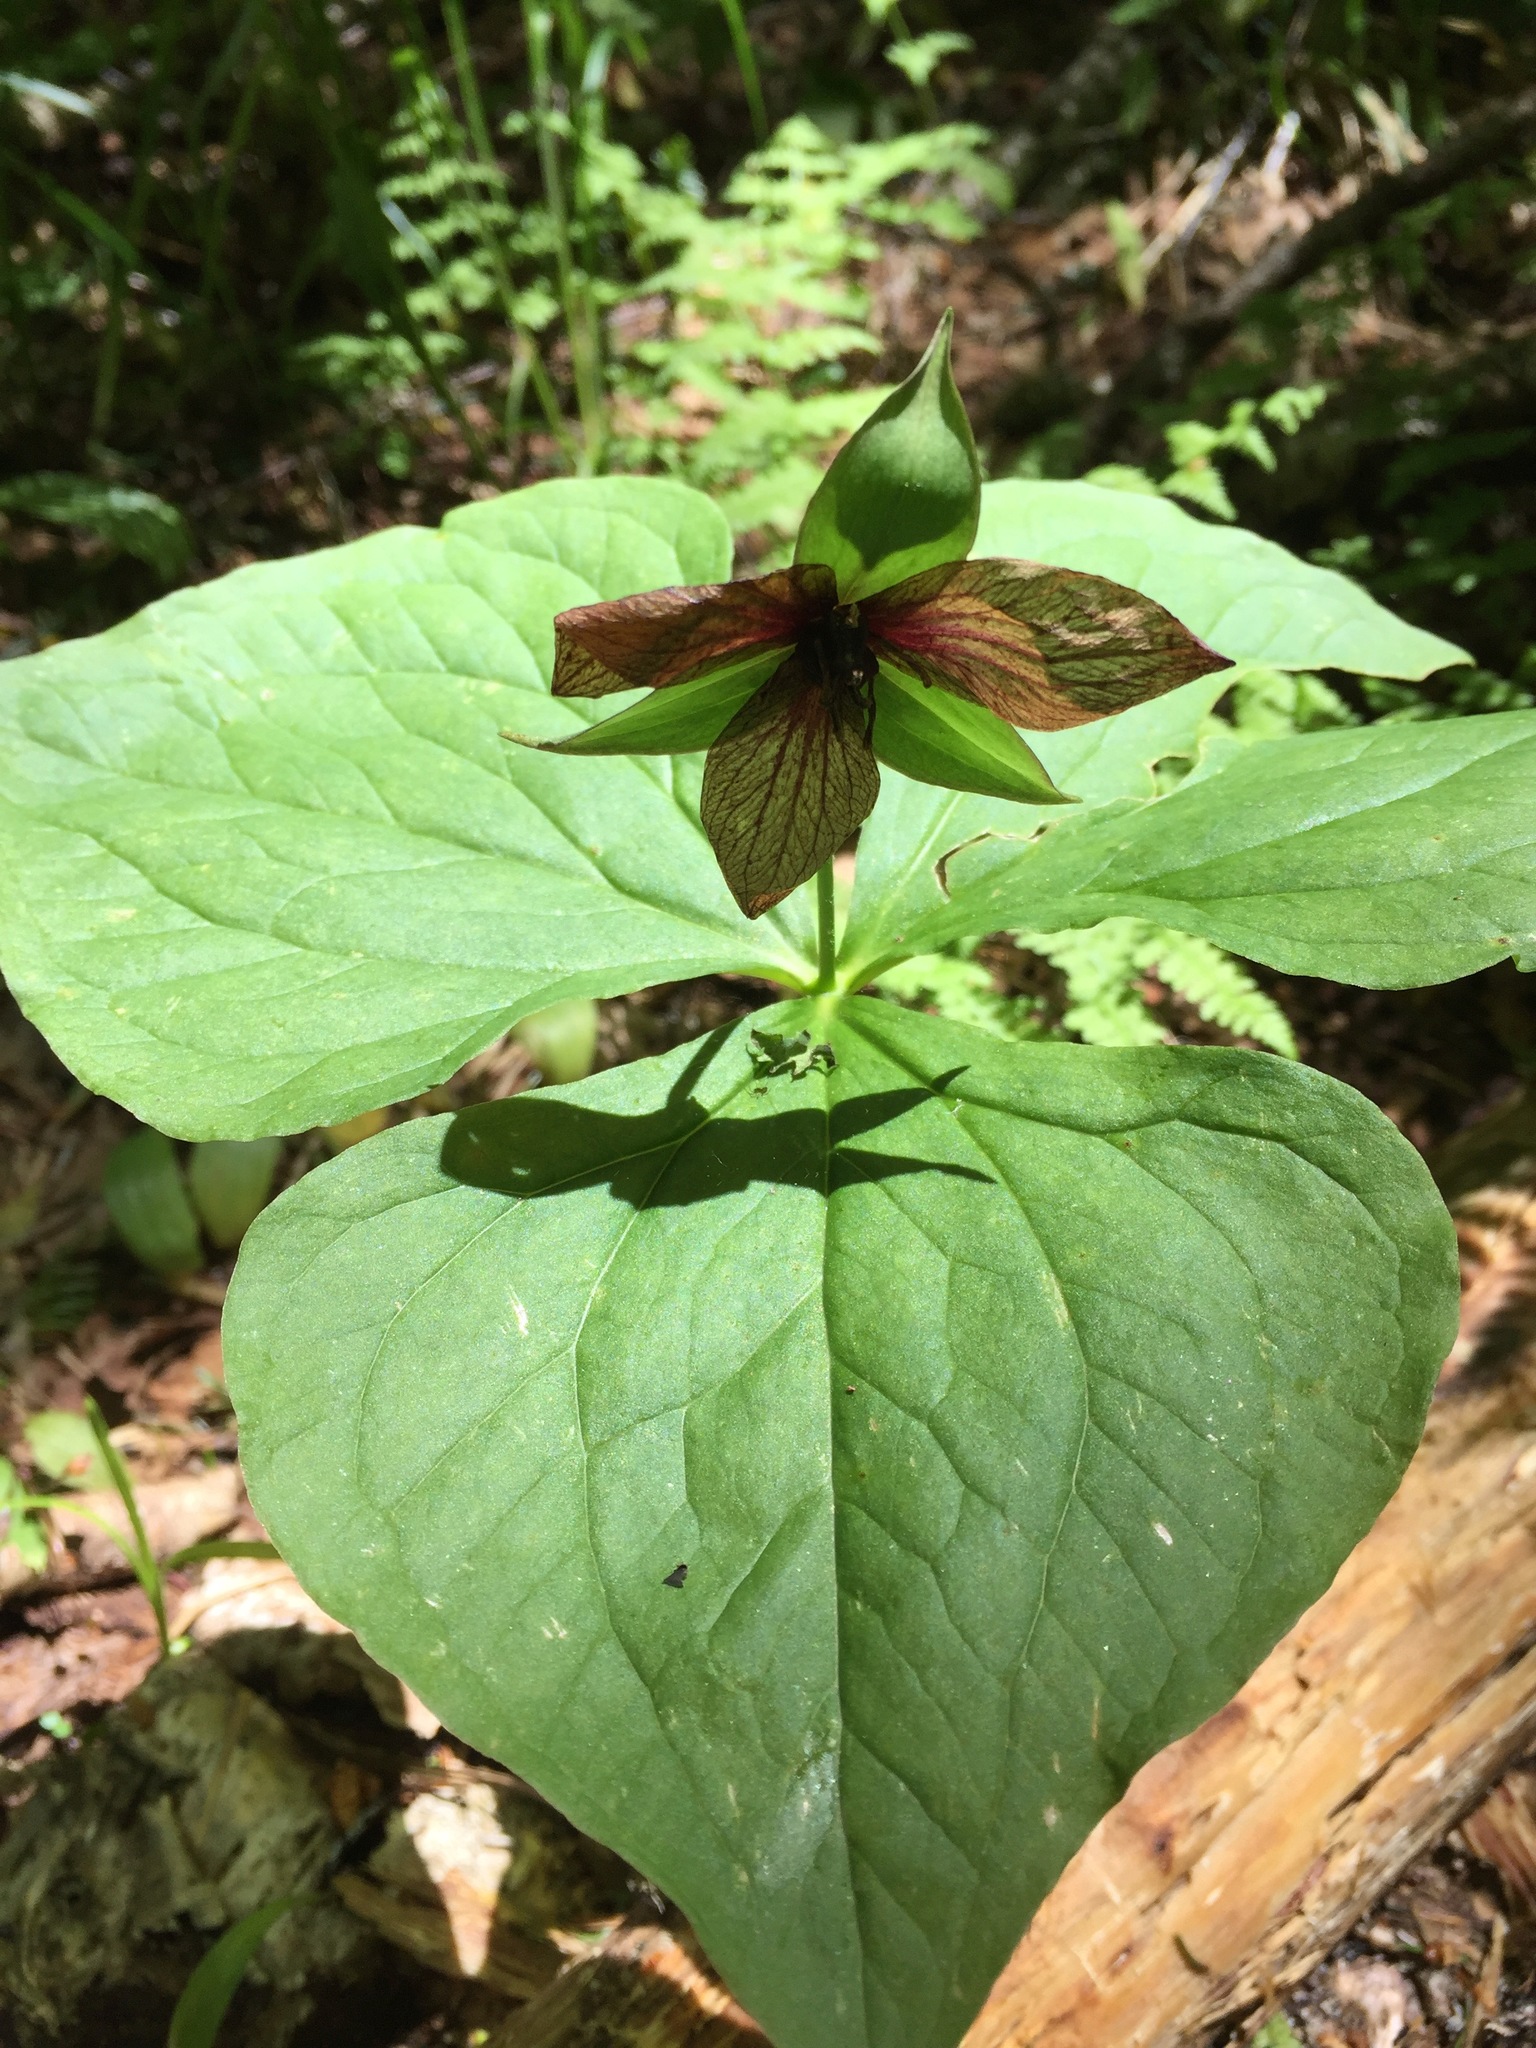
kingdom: Plantae
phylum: Tracheophyta
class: Liliopsida
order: Liliales
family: Melanthiaceae
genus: Trillium
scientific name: Trillium erectum
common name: Purple trillium
